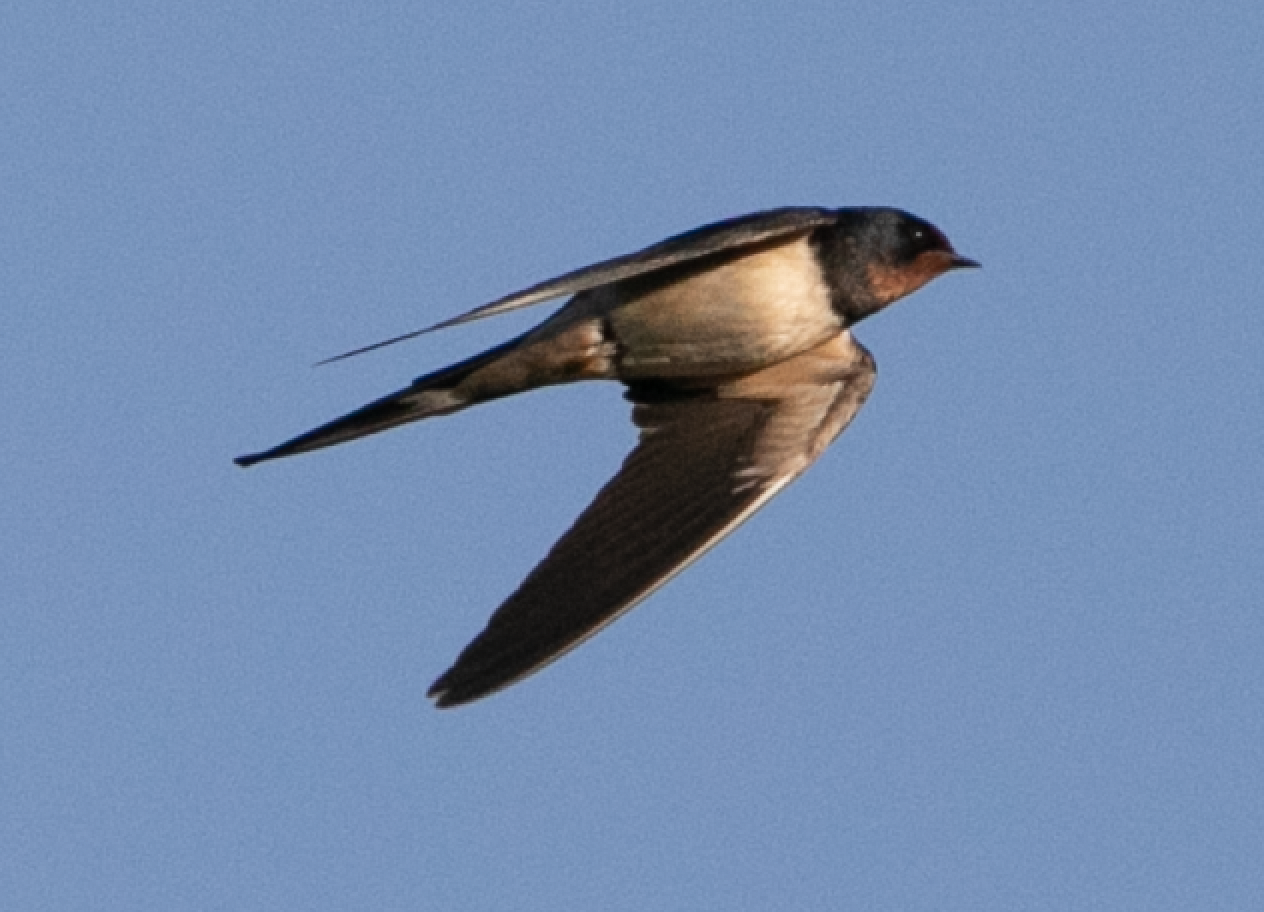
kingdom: Animalia
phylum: Chordata
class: Aves
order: Passeriformes
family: Hirundinidae
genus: Hirundo
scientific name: Hirundo rustica
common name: Barn swallow
